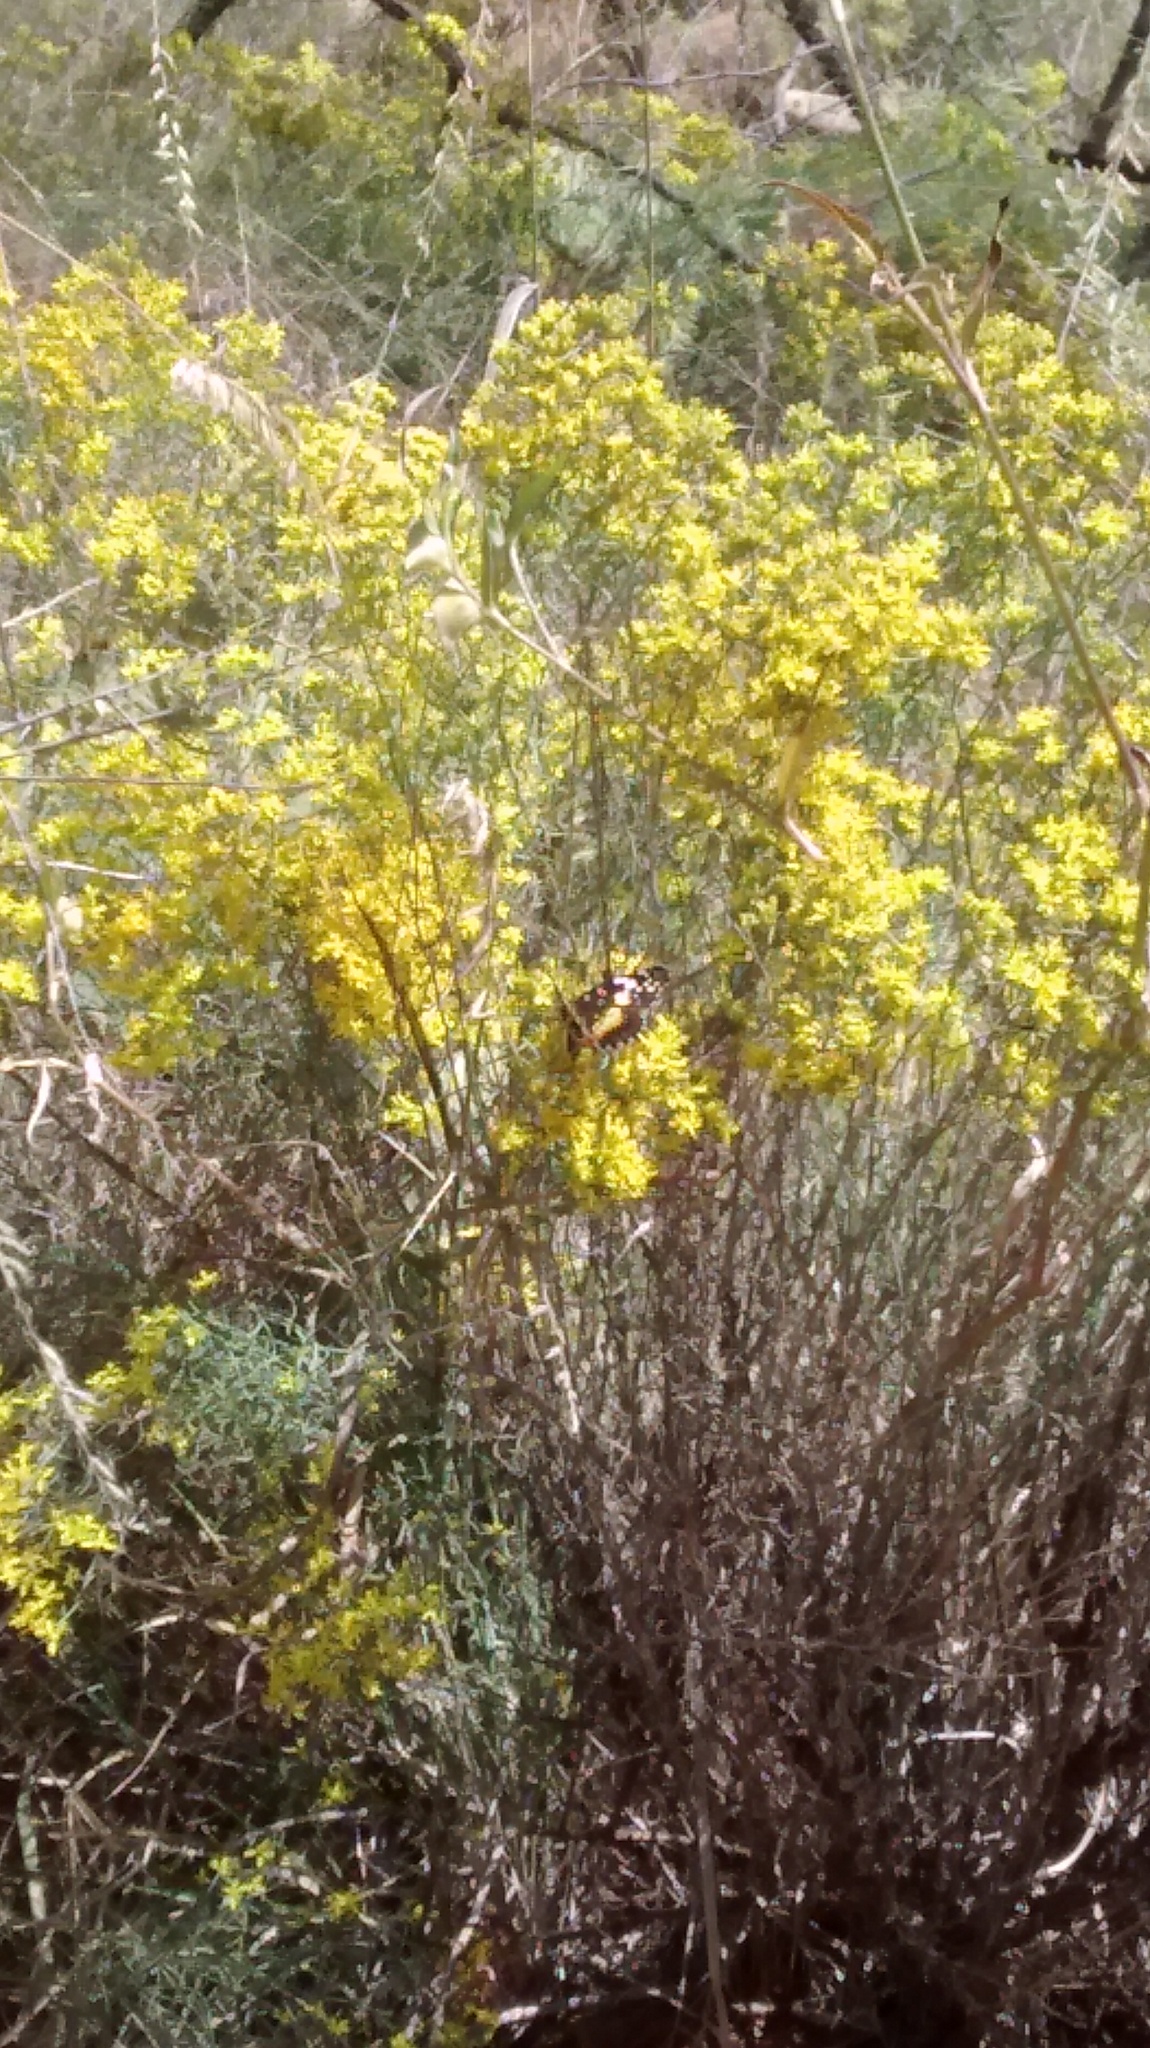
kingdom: Animalia
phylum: Arthropoda
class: Insecta
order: Lepidoptera
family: Nymphalidae
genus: Chlosyne
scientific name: Chlosyne lacinia
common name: Bordered patch
